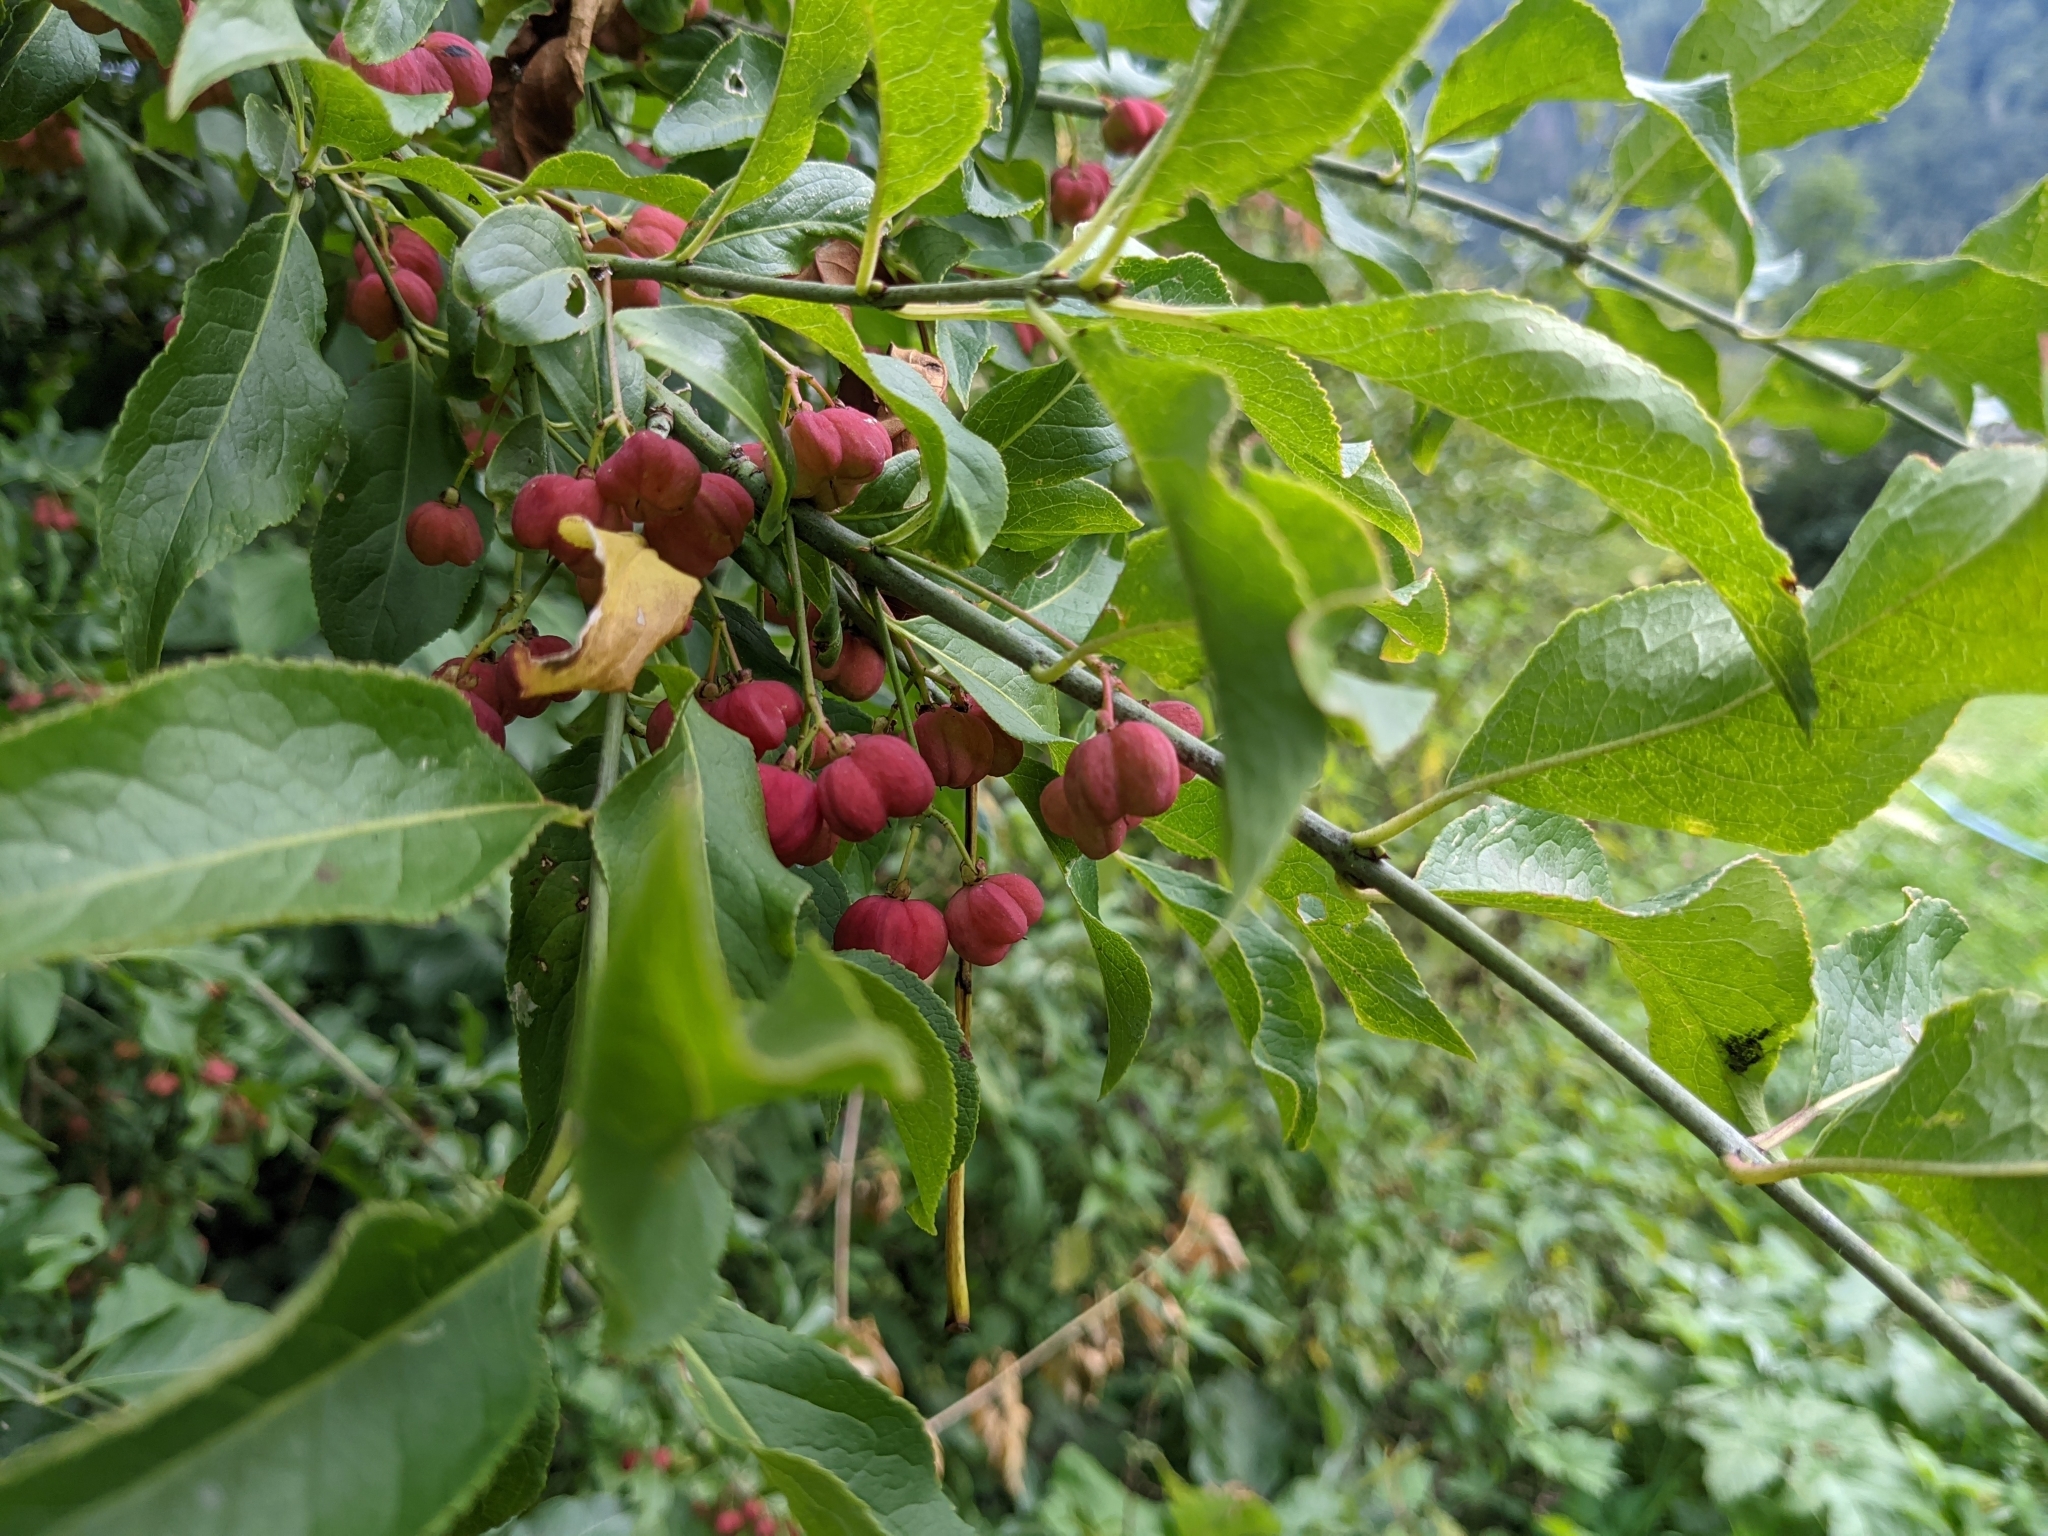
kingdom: Plantae
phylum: Tracheophyta
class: Magnoliopsida
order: Celastrales
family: Celastraceae
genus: Euonymus
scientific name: Euonymus europaeus
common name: Spindle
